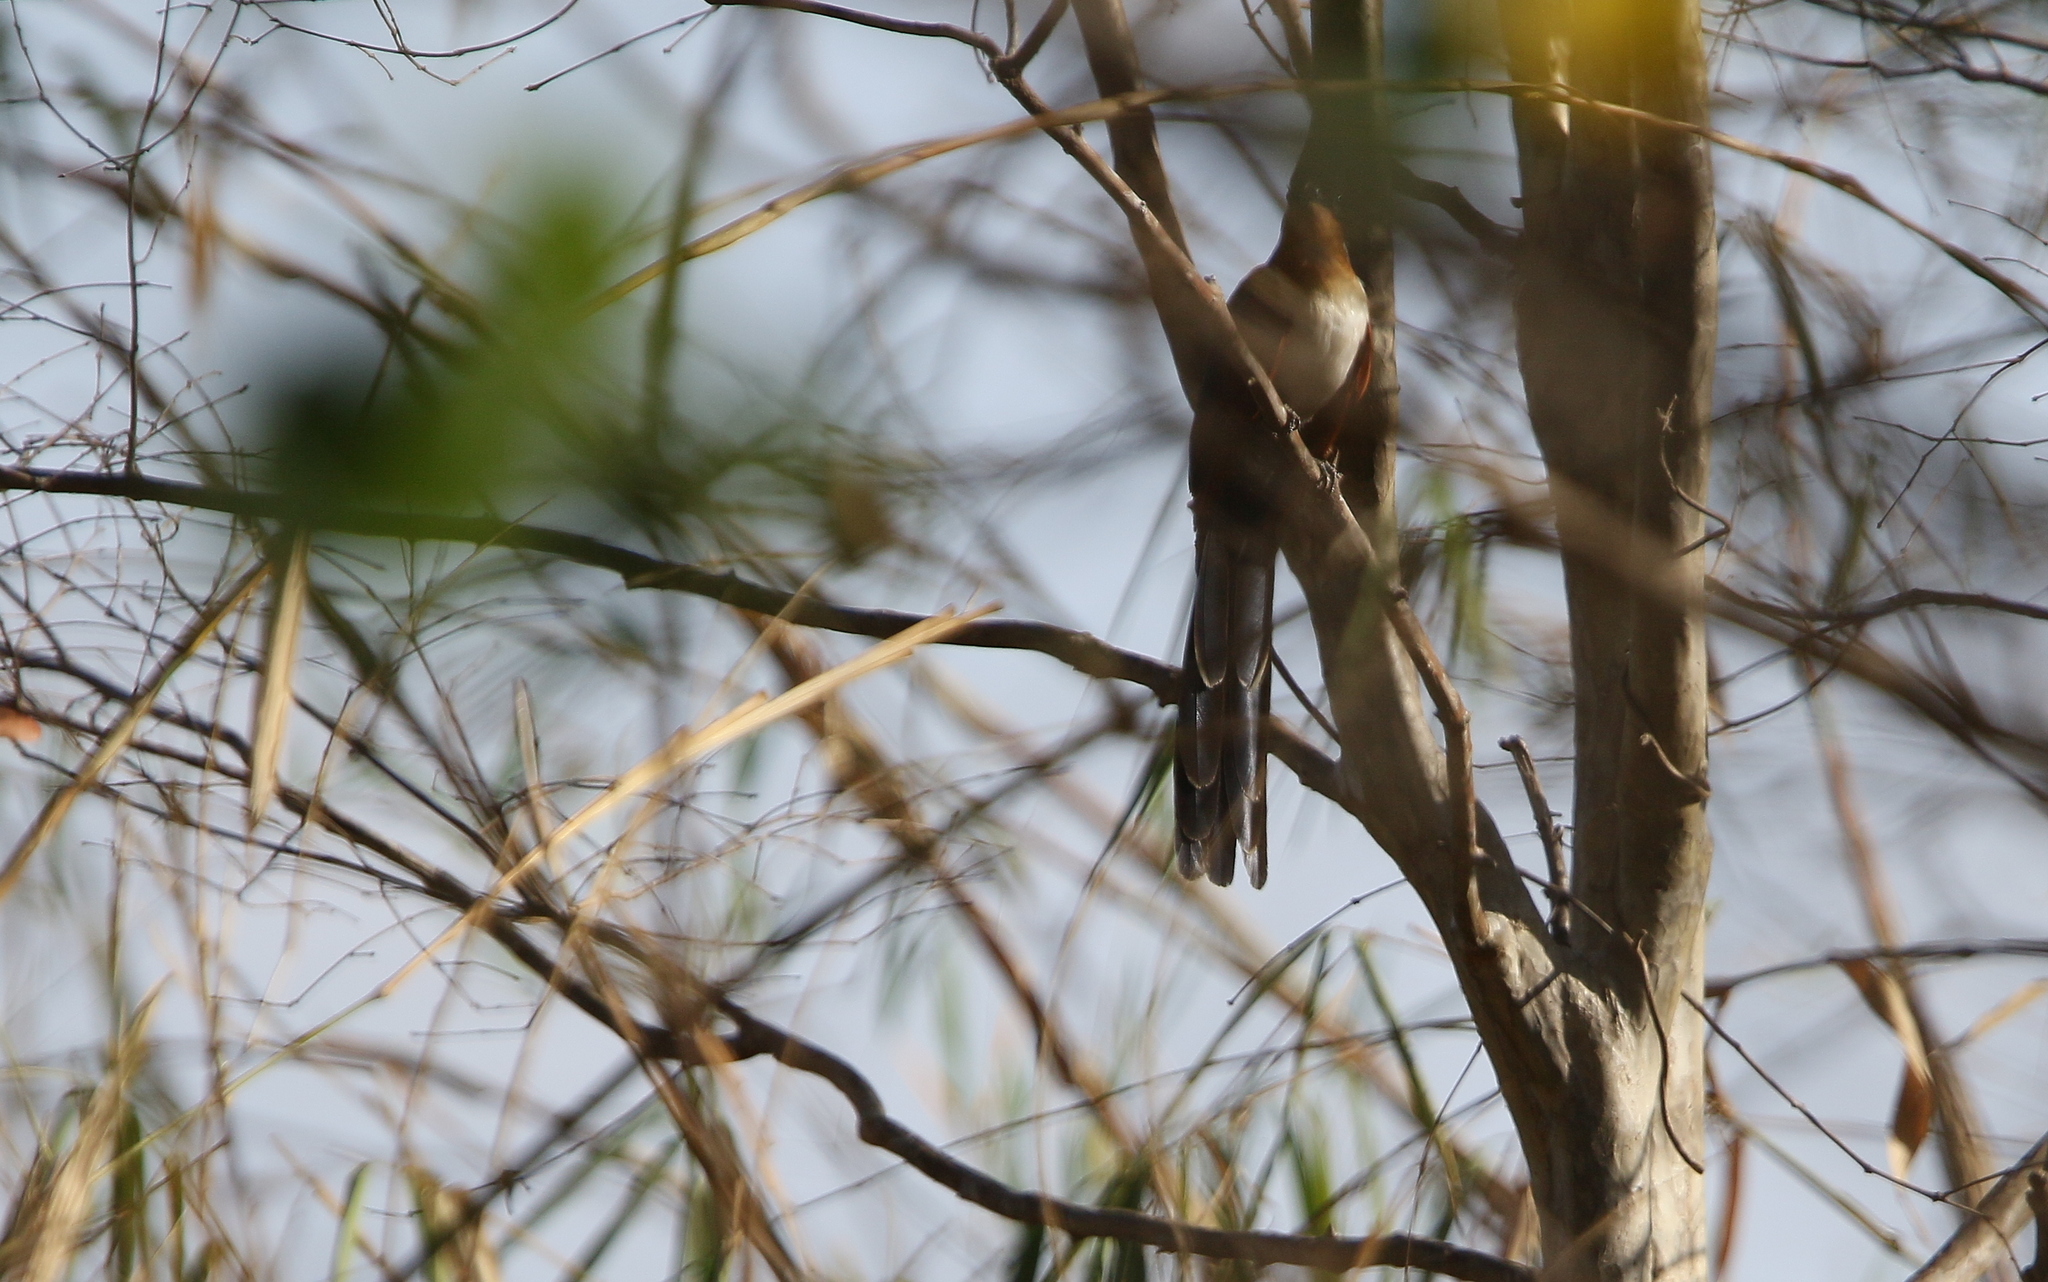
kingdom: Animalia
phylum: Chordata
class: Aves
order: Cuculiformes
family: Cuculidae
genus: Clamator
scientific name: Clamator coromandus
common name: Chestnut-winged cuckoo
